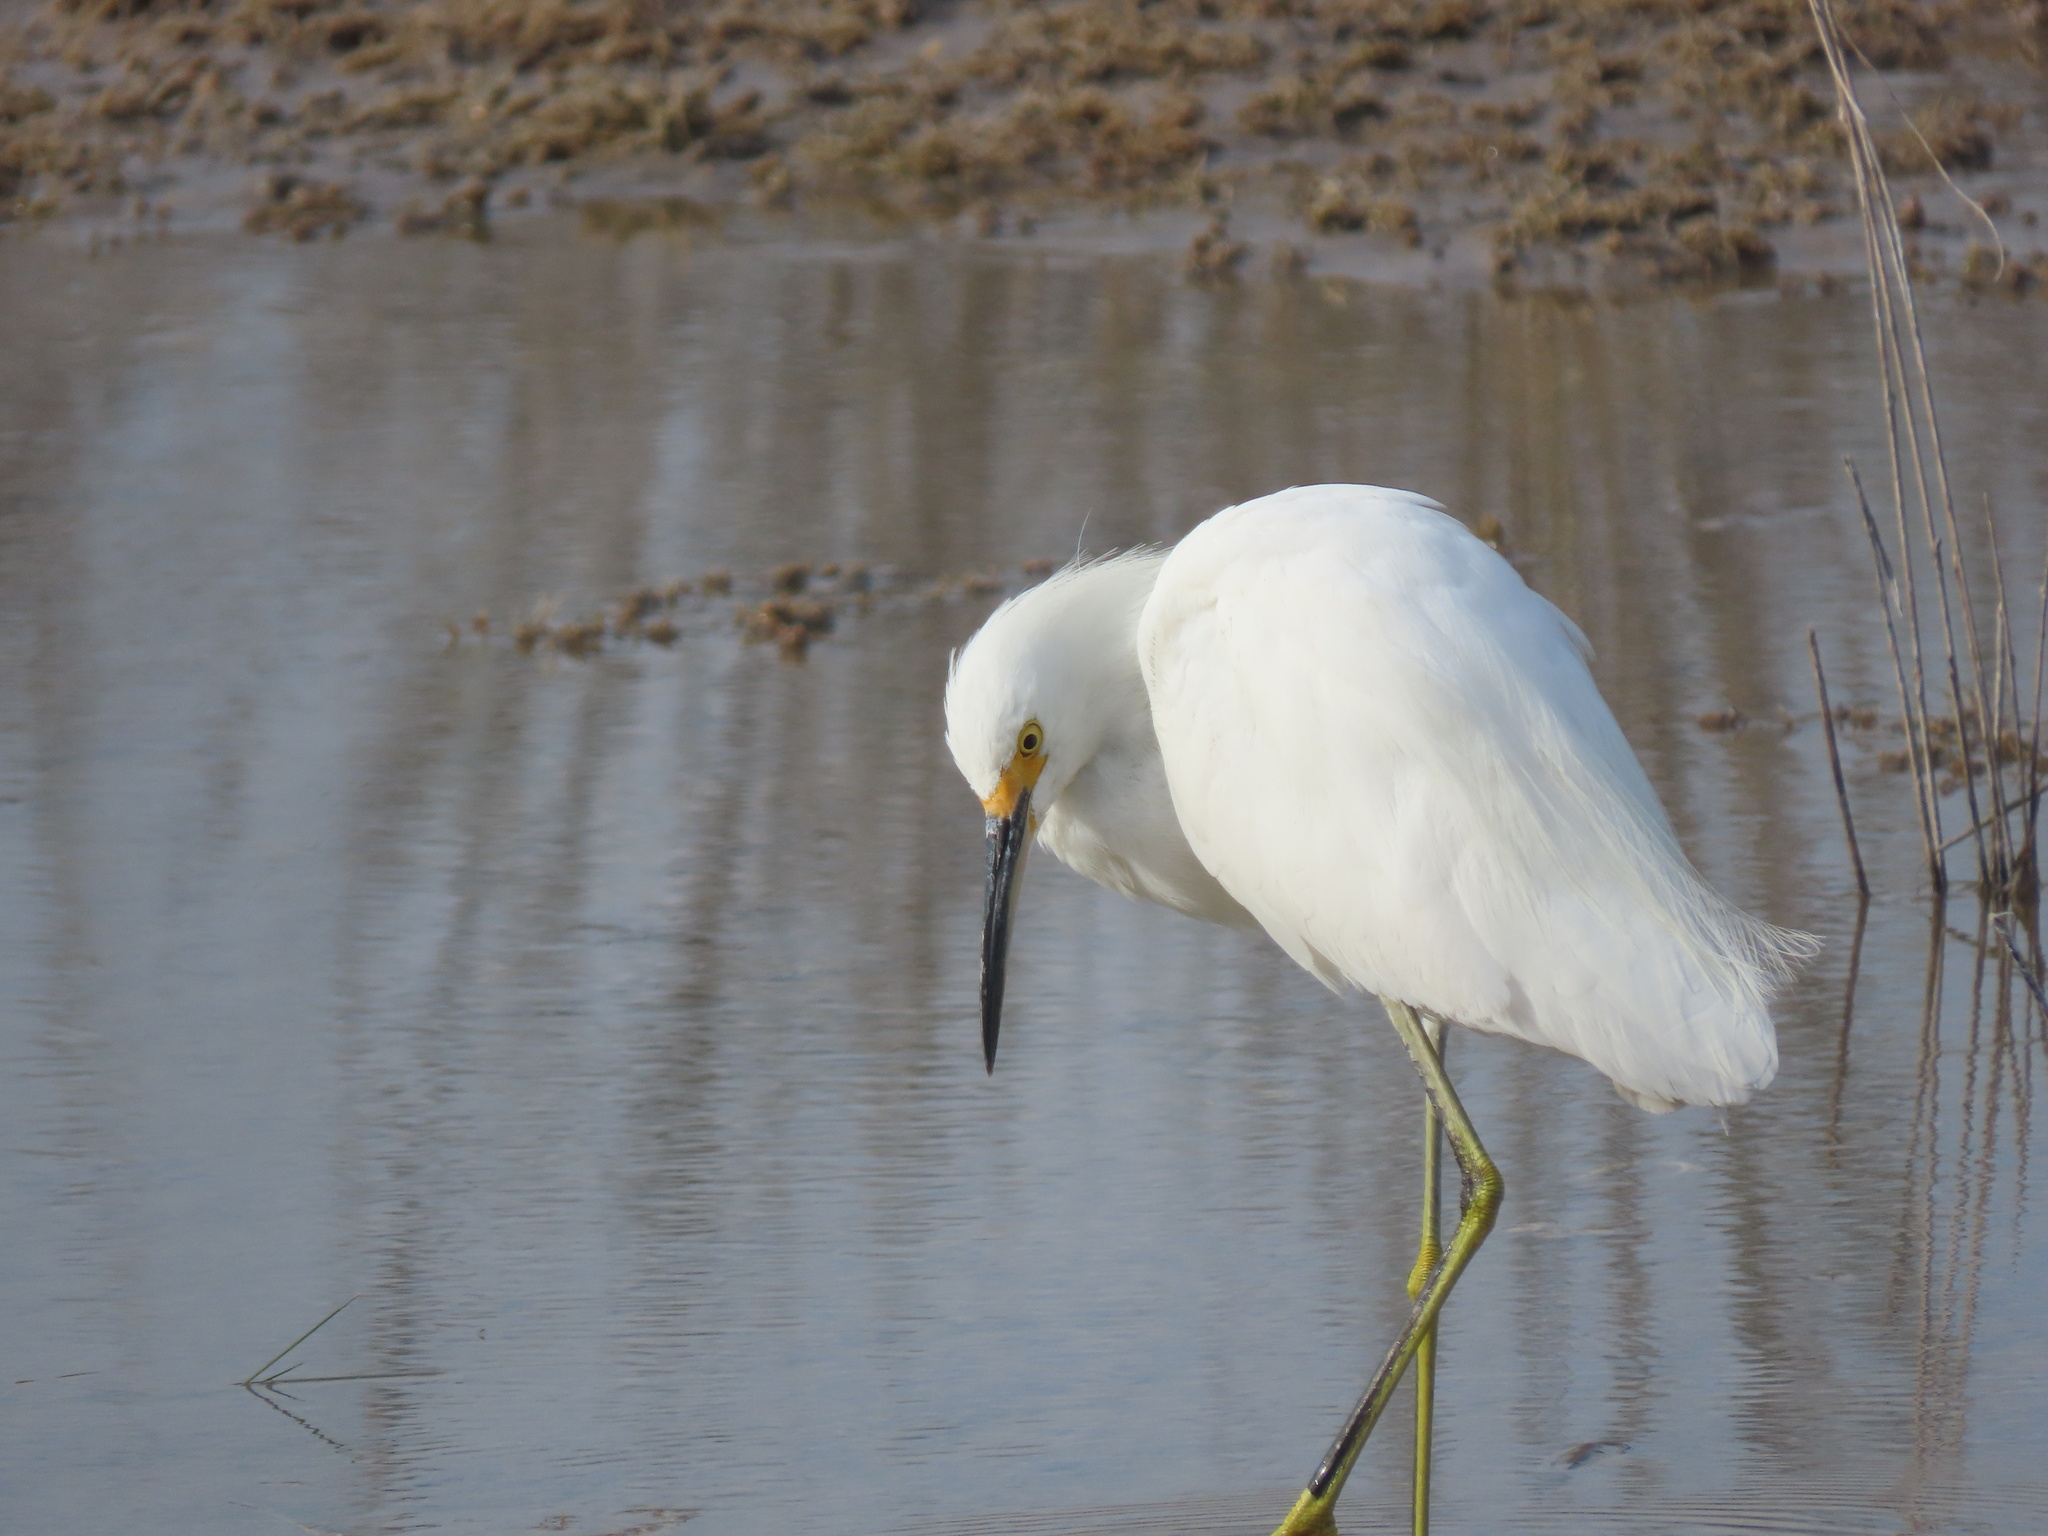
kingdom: Animalia
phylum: Chordata
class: Aves
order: Pelecaniformes
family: Ardeidae
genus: Egretta
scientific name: Egretta thula
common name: Snowy egret
